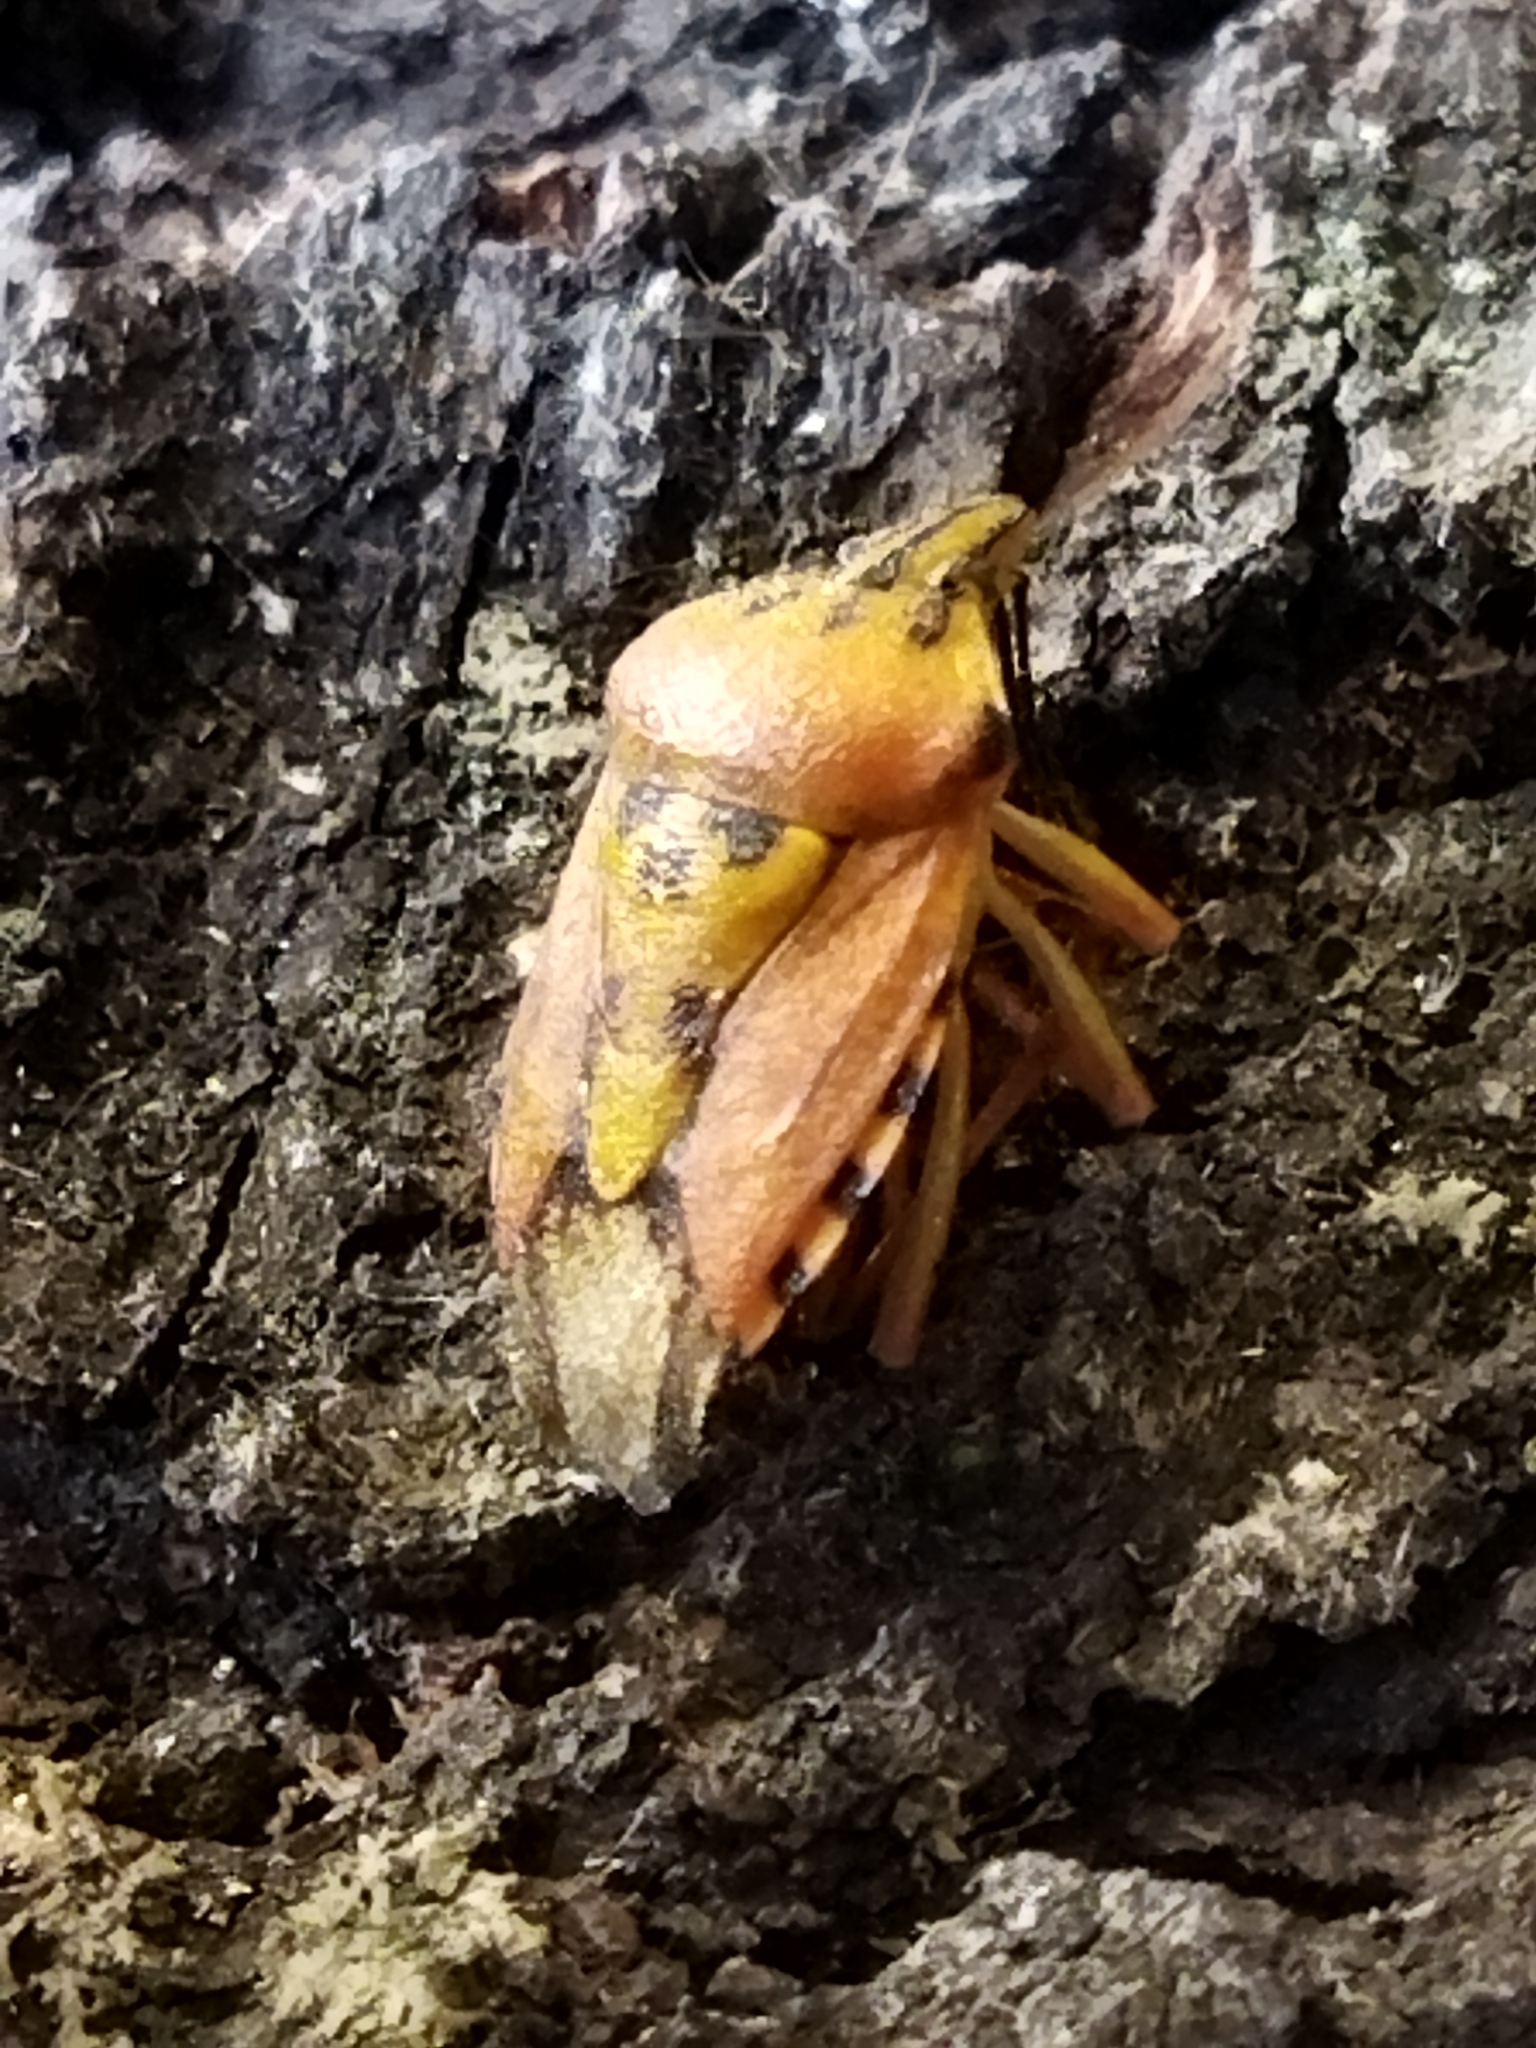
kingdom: Animalia
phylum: Arthropoda
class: Insecta
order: Hemiptera
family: Pentatomidae
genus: Carpocoris
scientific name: Carpocoris mediterraneus
